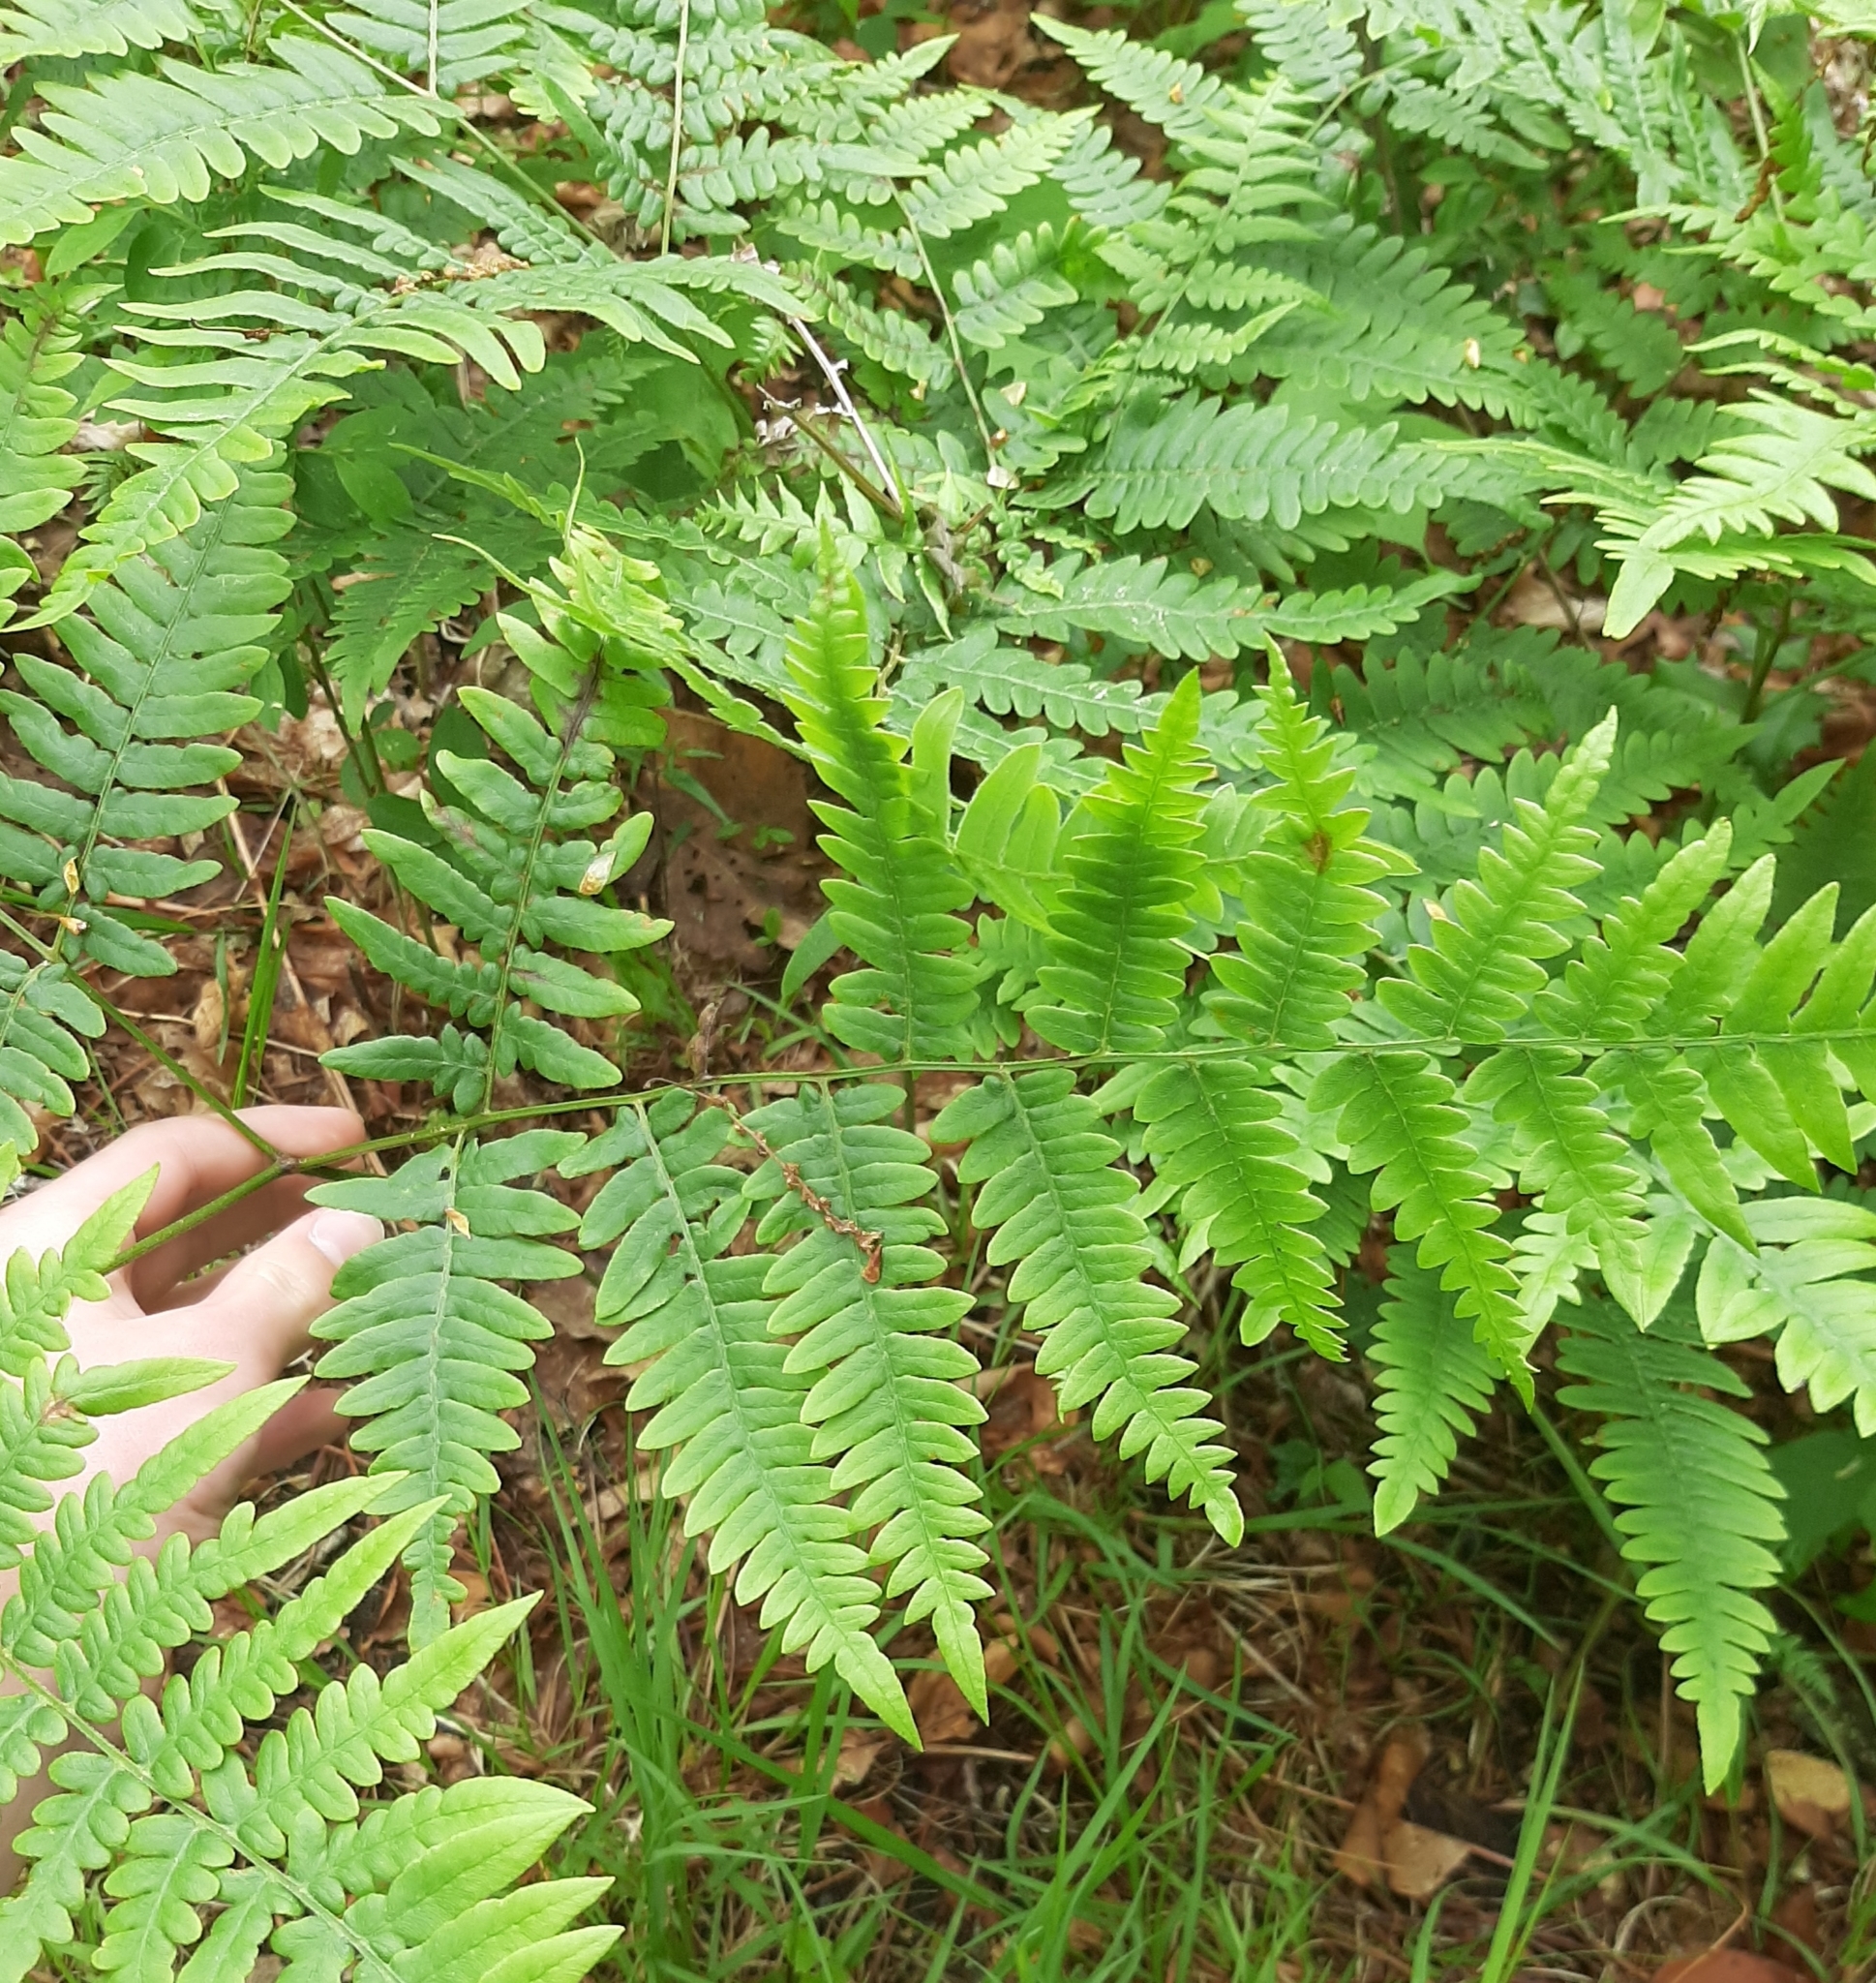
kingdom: Plantae
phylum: Tracheophyta
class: Polypodiopsida
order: Polypodiales
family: Dennstaedtiaceae
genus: Pteridium
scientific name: Pteridium aquilinum
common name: Bracken
